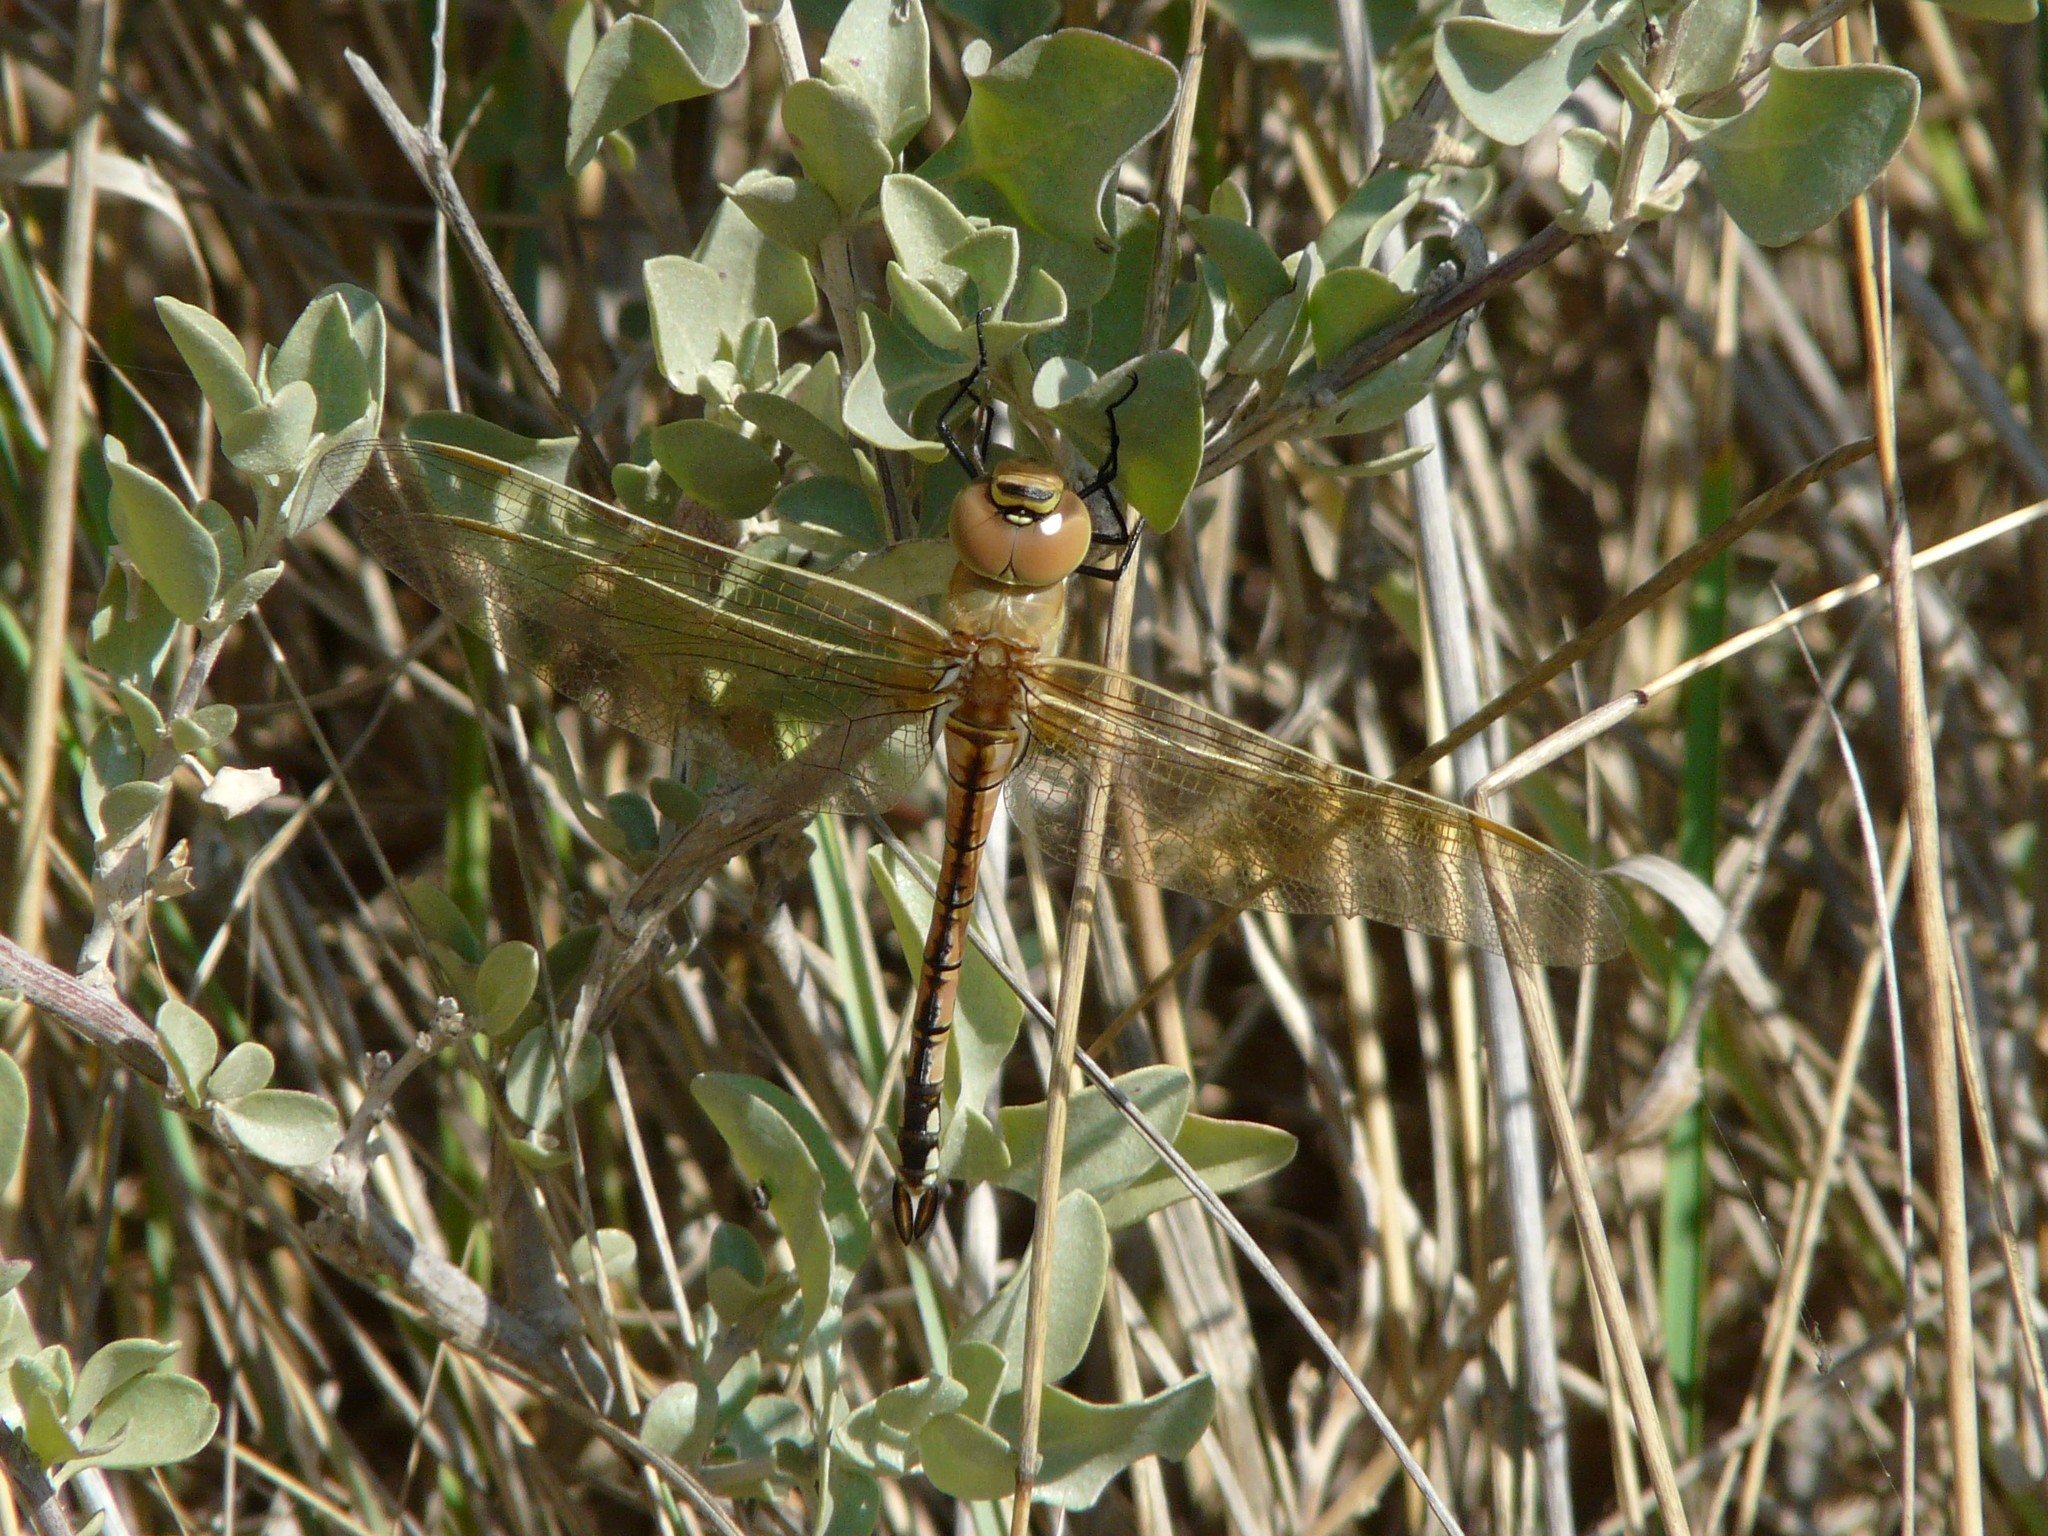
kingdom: Animalia
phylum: Arthropoda
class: Insecta
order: Odonata
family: Aeshnidae
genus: Anax
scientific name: Anax ephippiger
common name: Vagrant emperor
